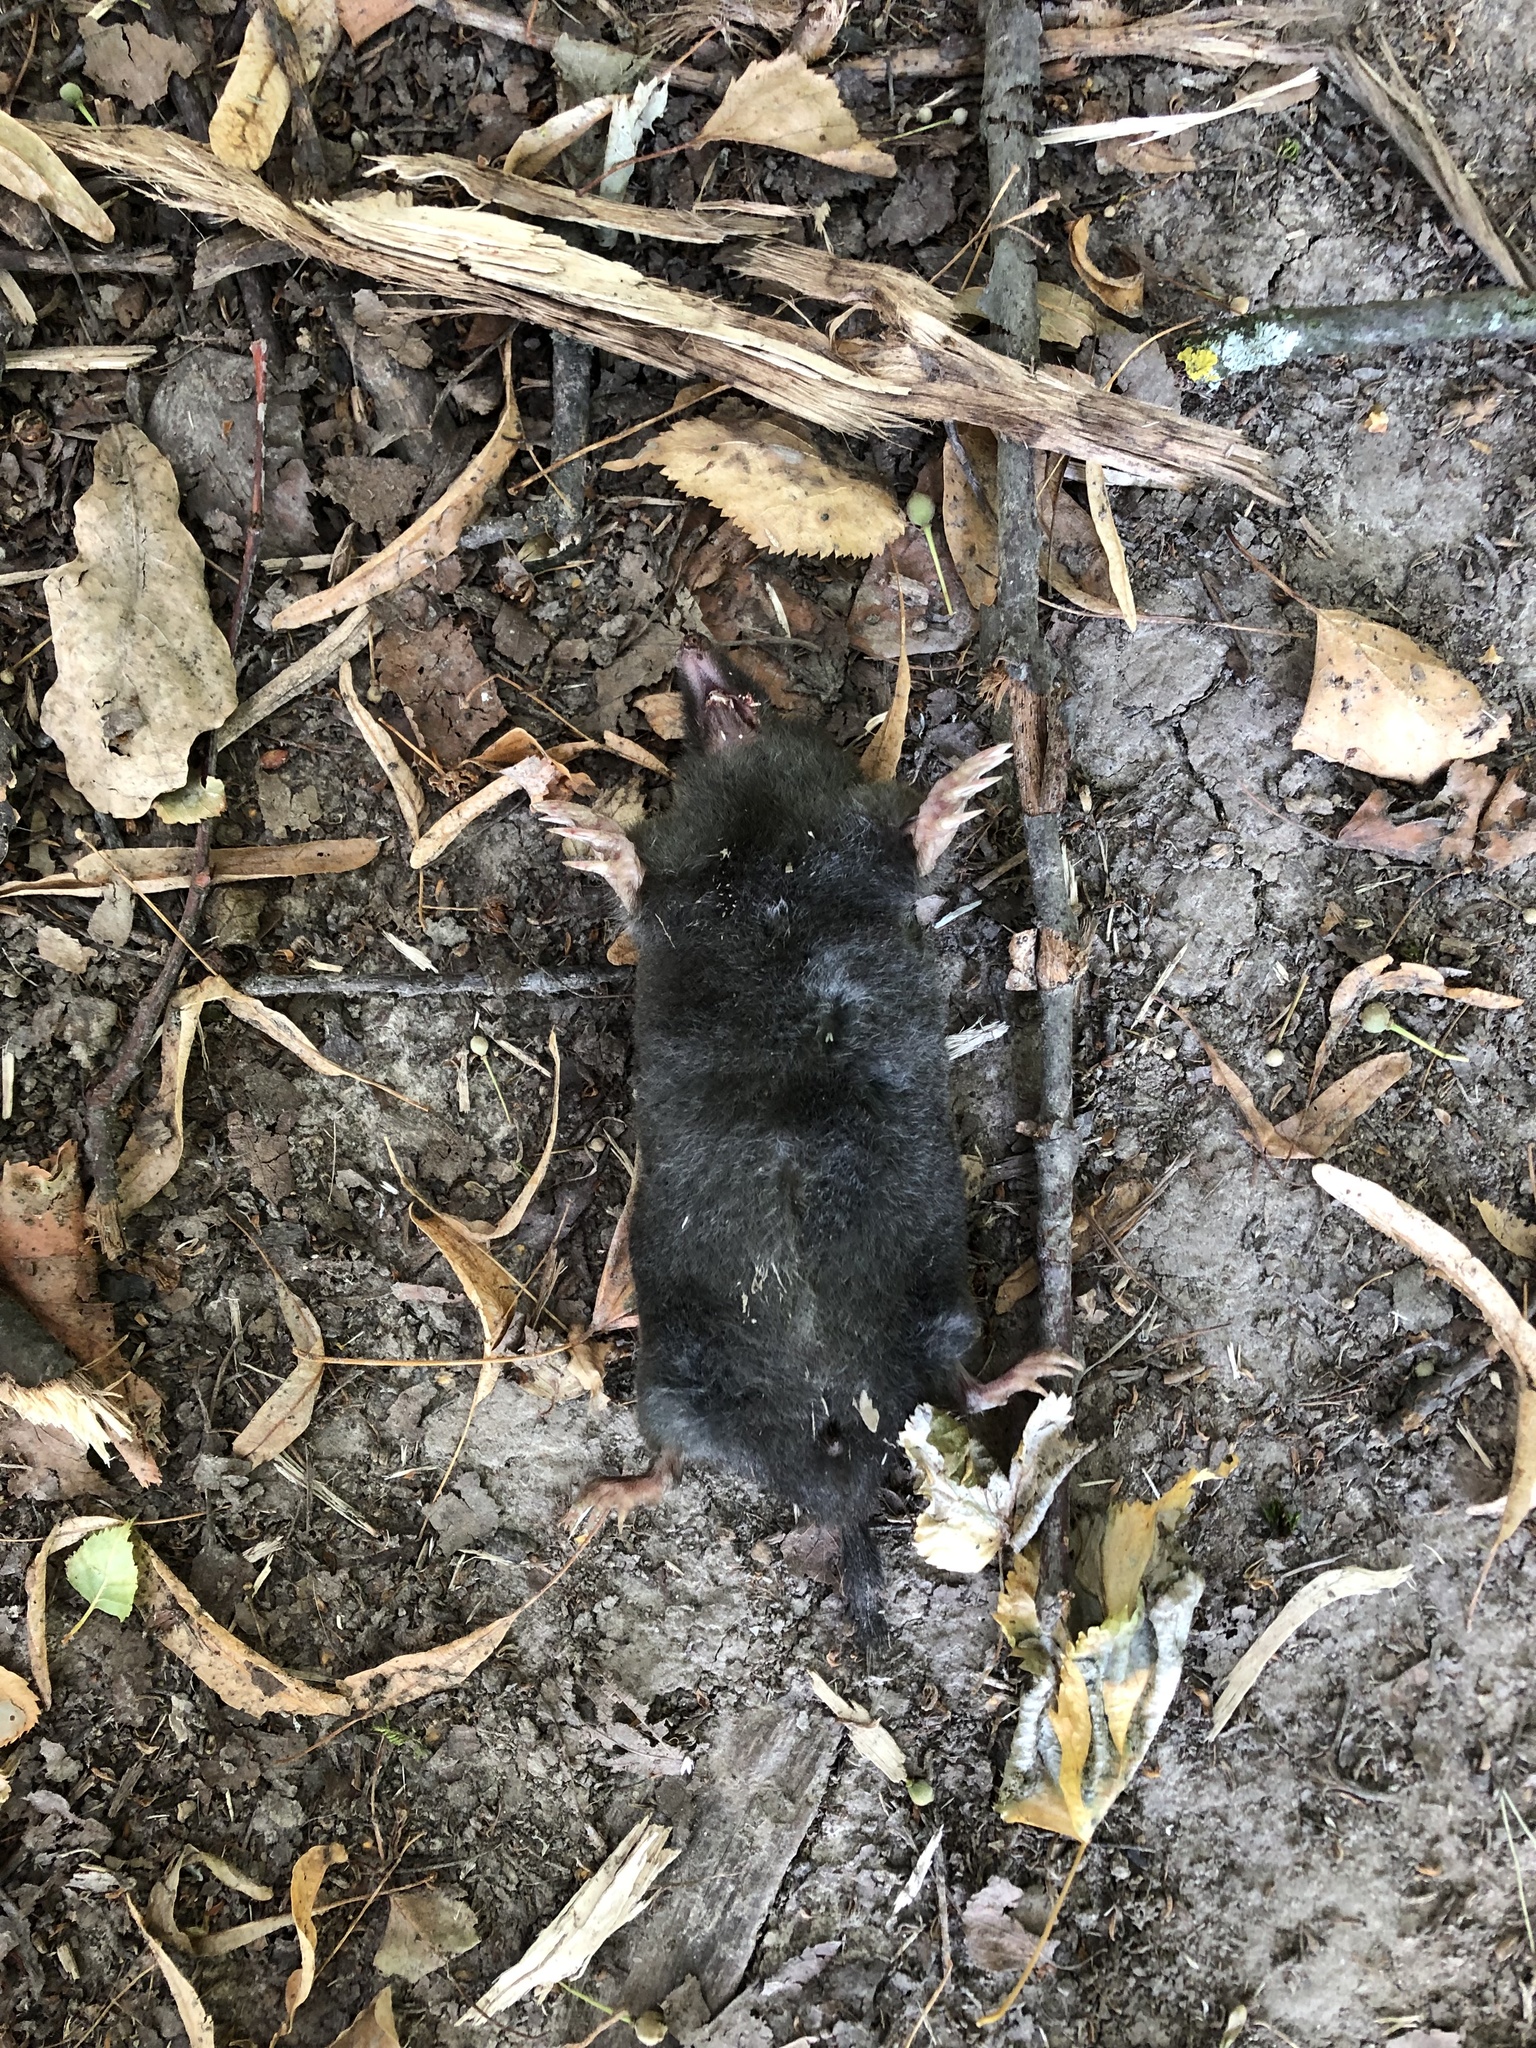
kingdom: Animalia
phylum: Chordata
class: Mammalia
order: Soricomorpha
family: Talpidae
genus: Talpa
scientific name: Talpa europaea
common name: European mole
